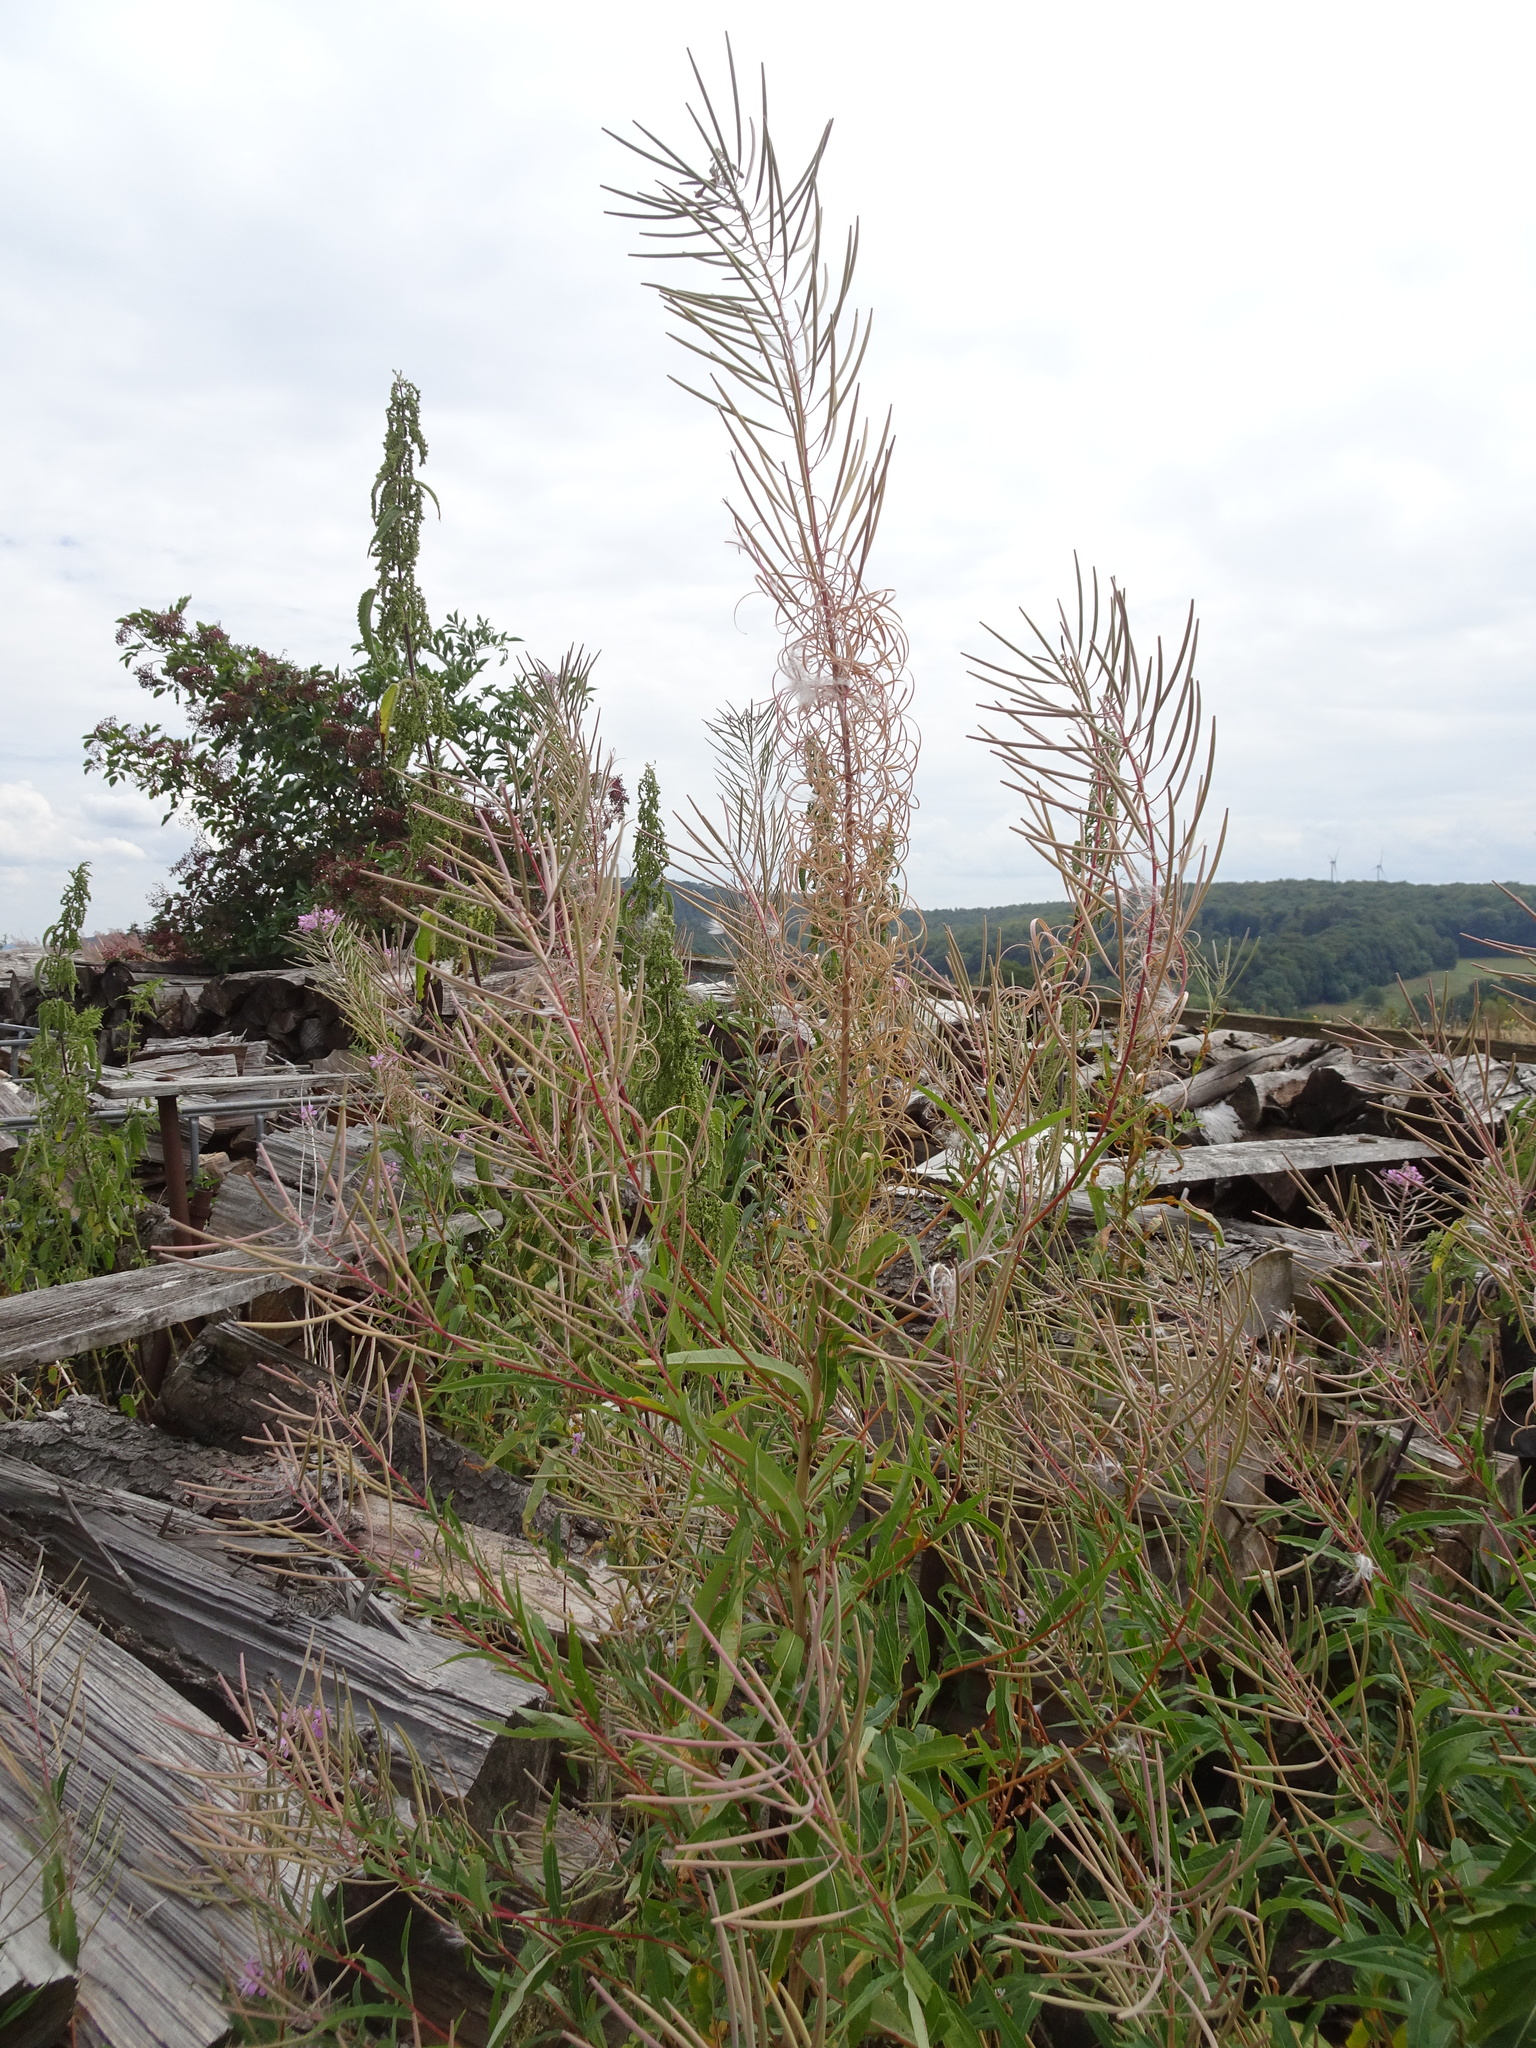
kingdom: Plantae
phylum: Tracheophyta
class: Magnoliopsida
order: Myrtales
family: Onagraceae
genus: Chamaenerion
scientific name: Chamaenerion angustifolium
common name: Fireweed
